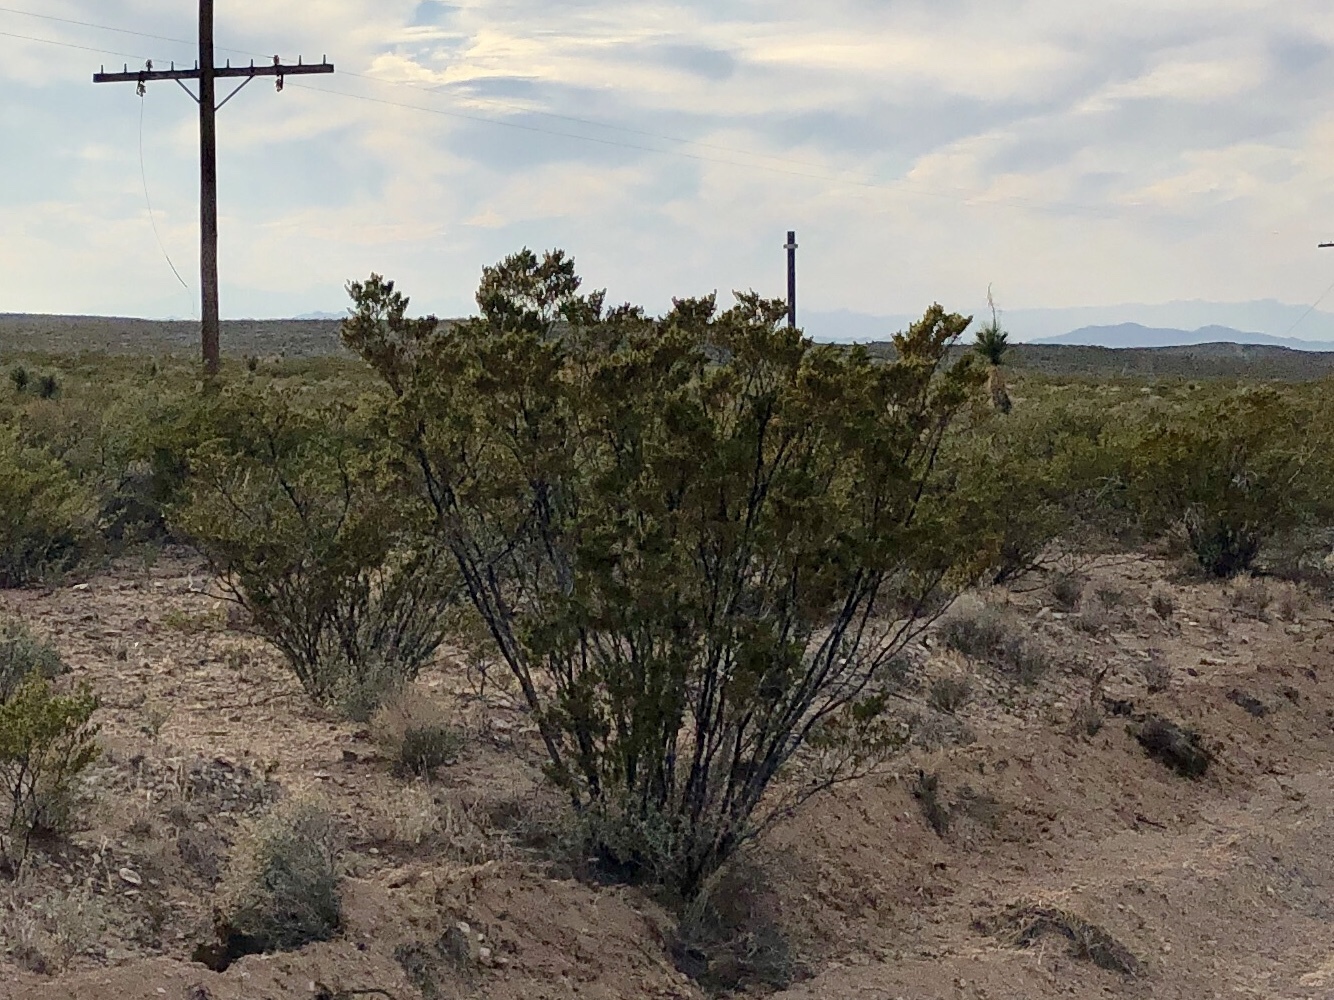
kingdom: Plantae
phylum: Tracheophyta
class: Magnoliopsida
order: Zygophyllales
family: Zygophyllaceae
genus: Larrea
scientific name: Larrea tridentata
